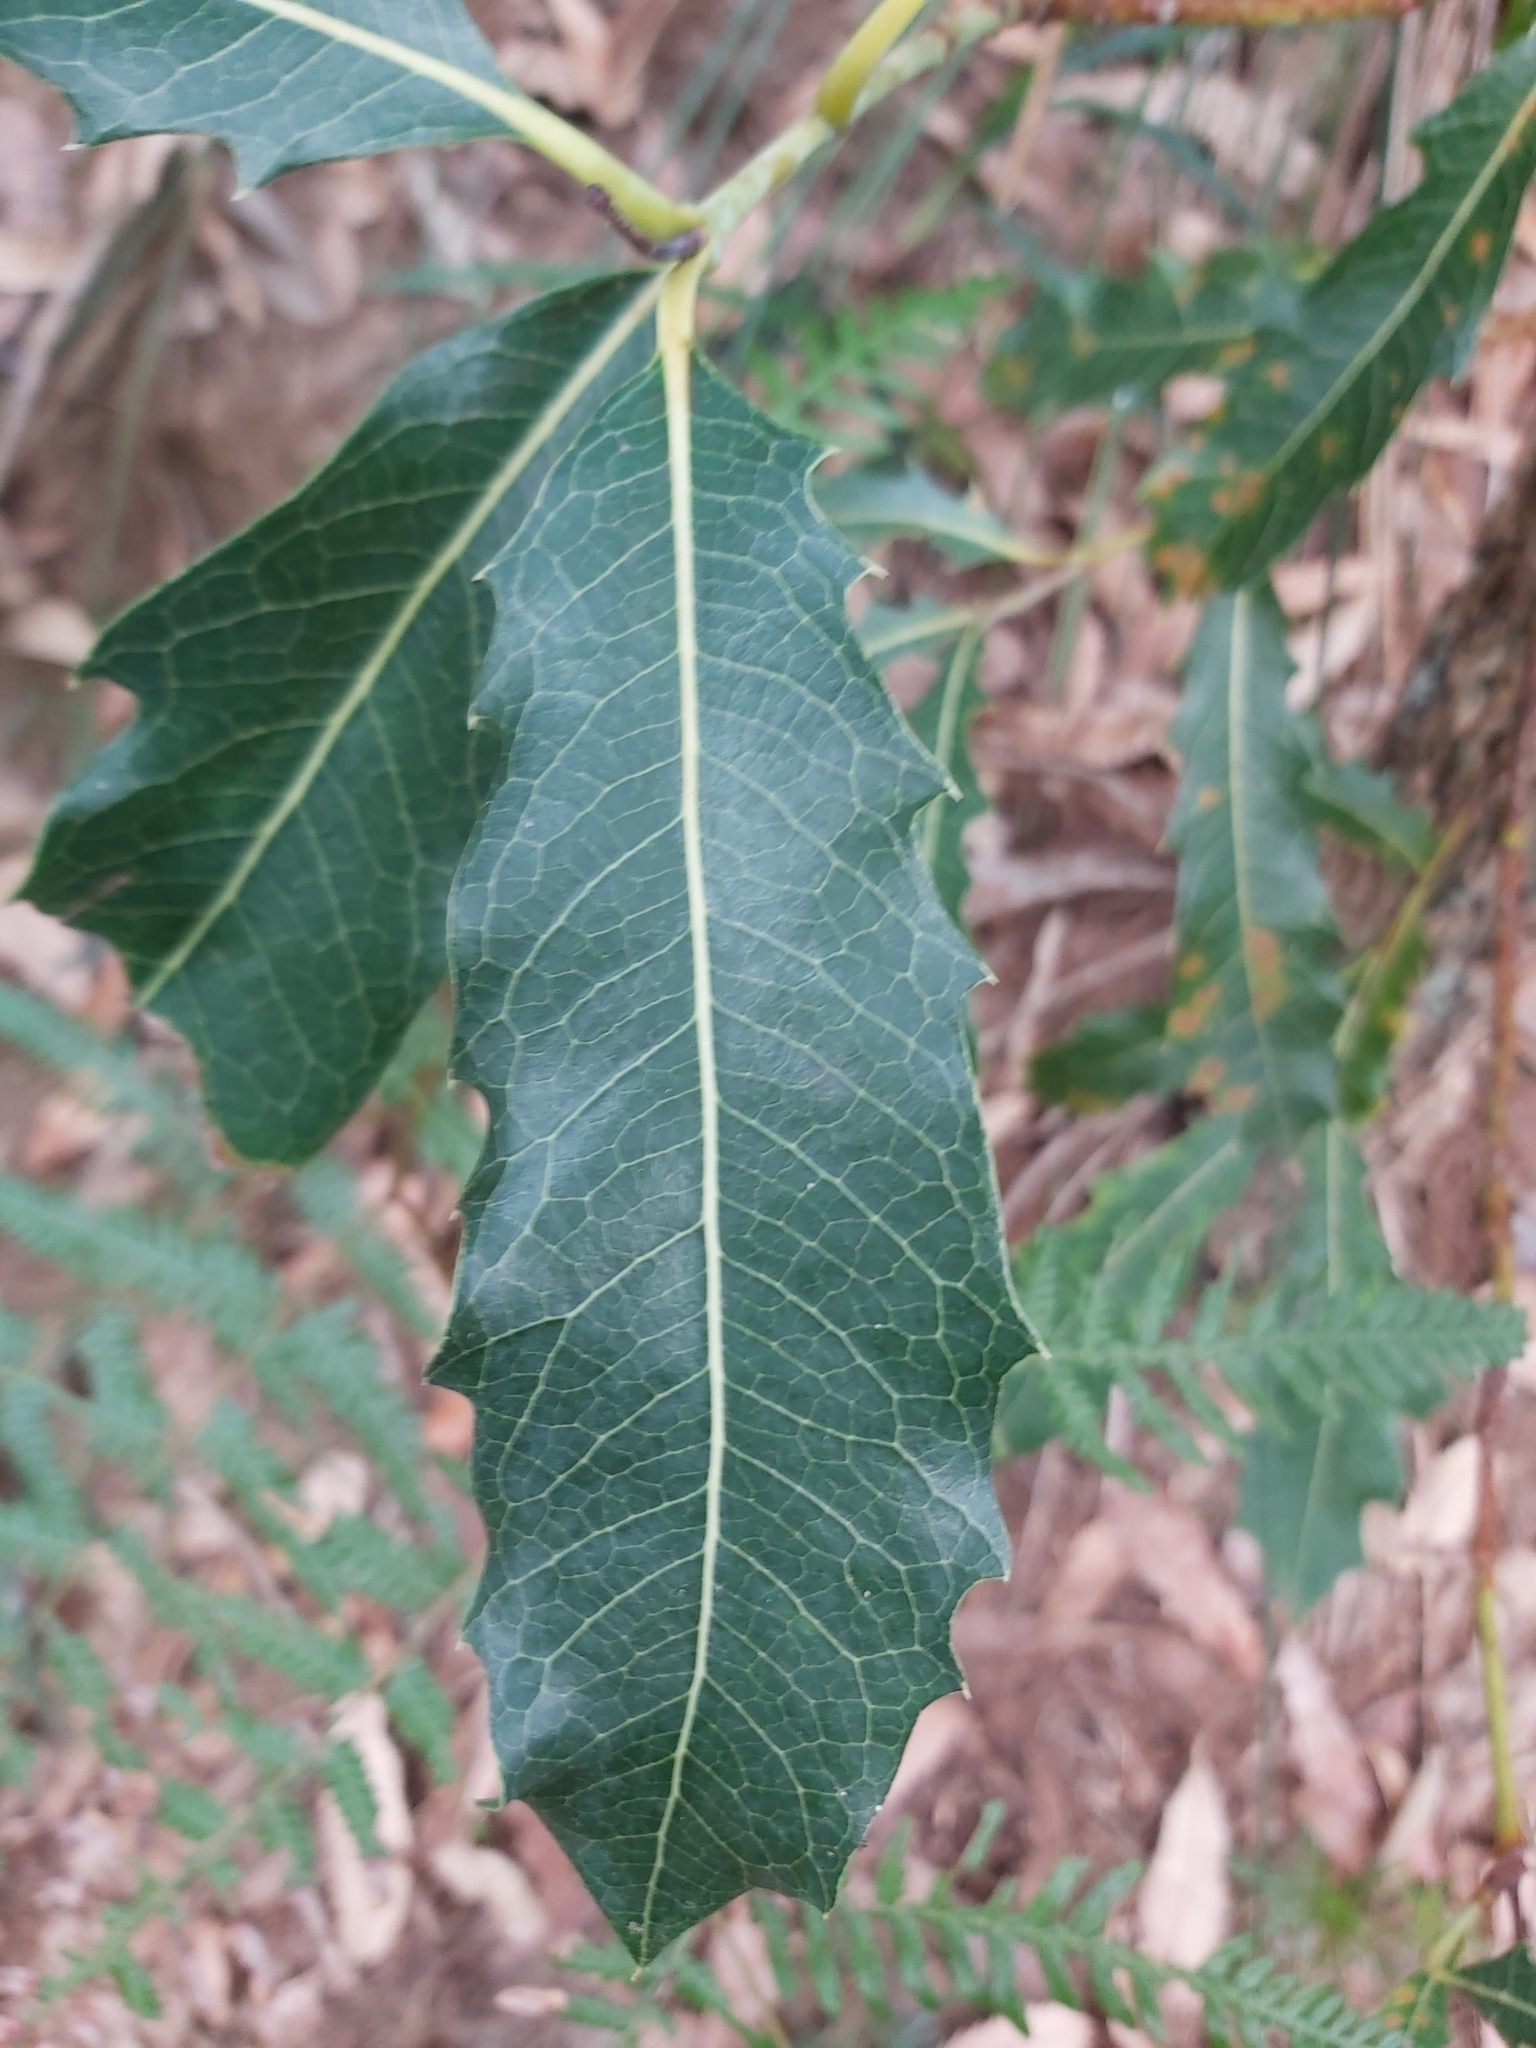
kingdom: Plantae
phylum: Tracheophyta
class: Magnoliopsida
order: Proteales
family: Proteaceae
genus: Xylomelum
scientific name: Xylomelum pyriforme
